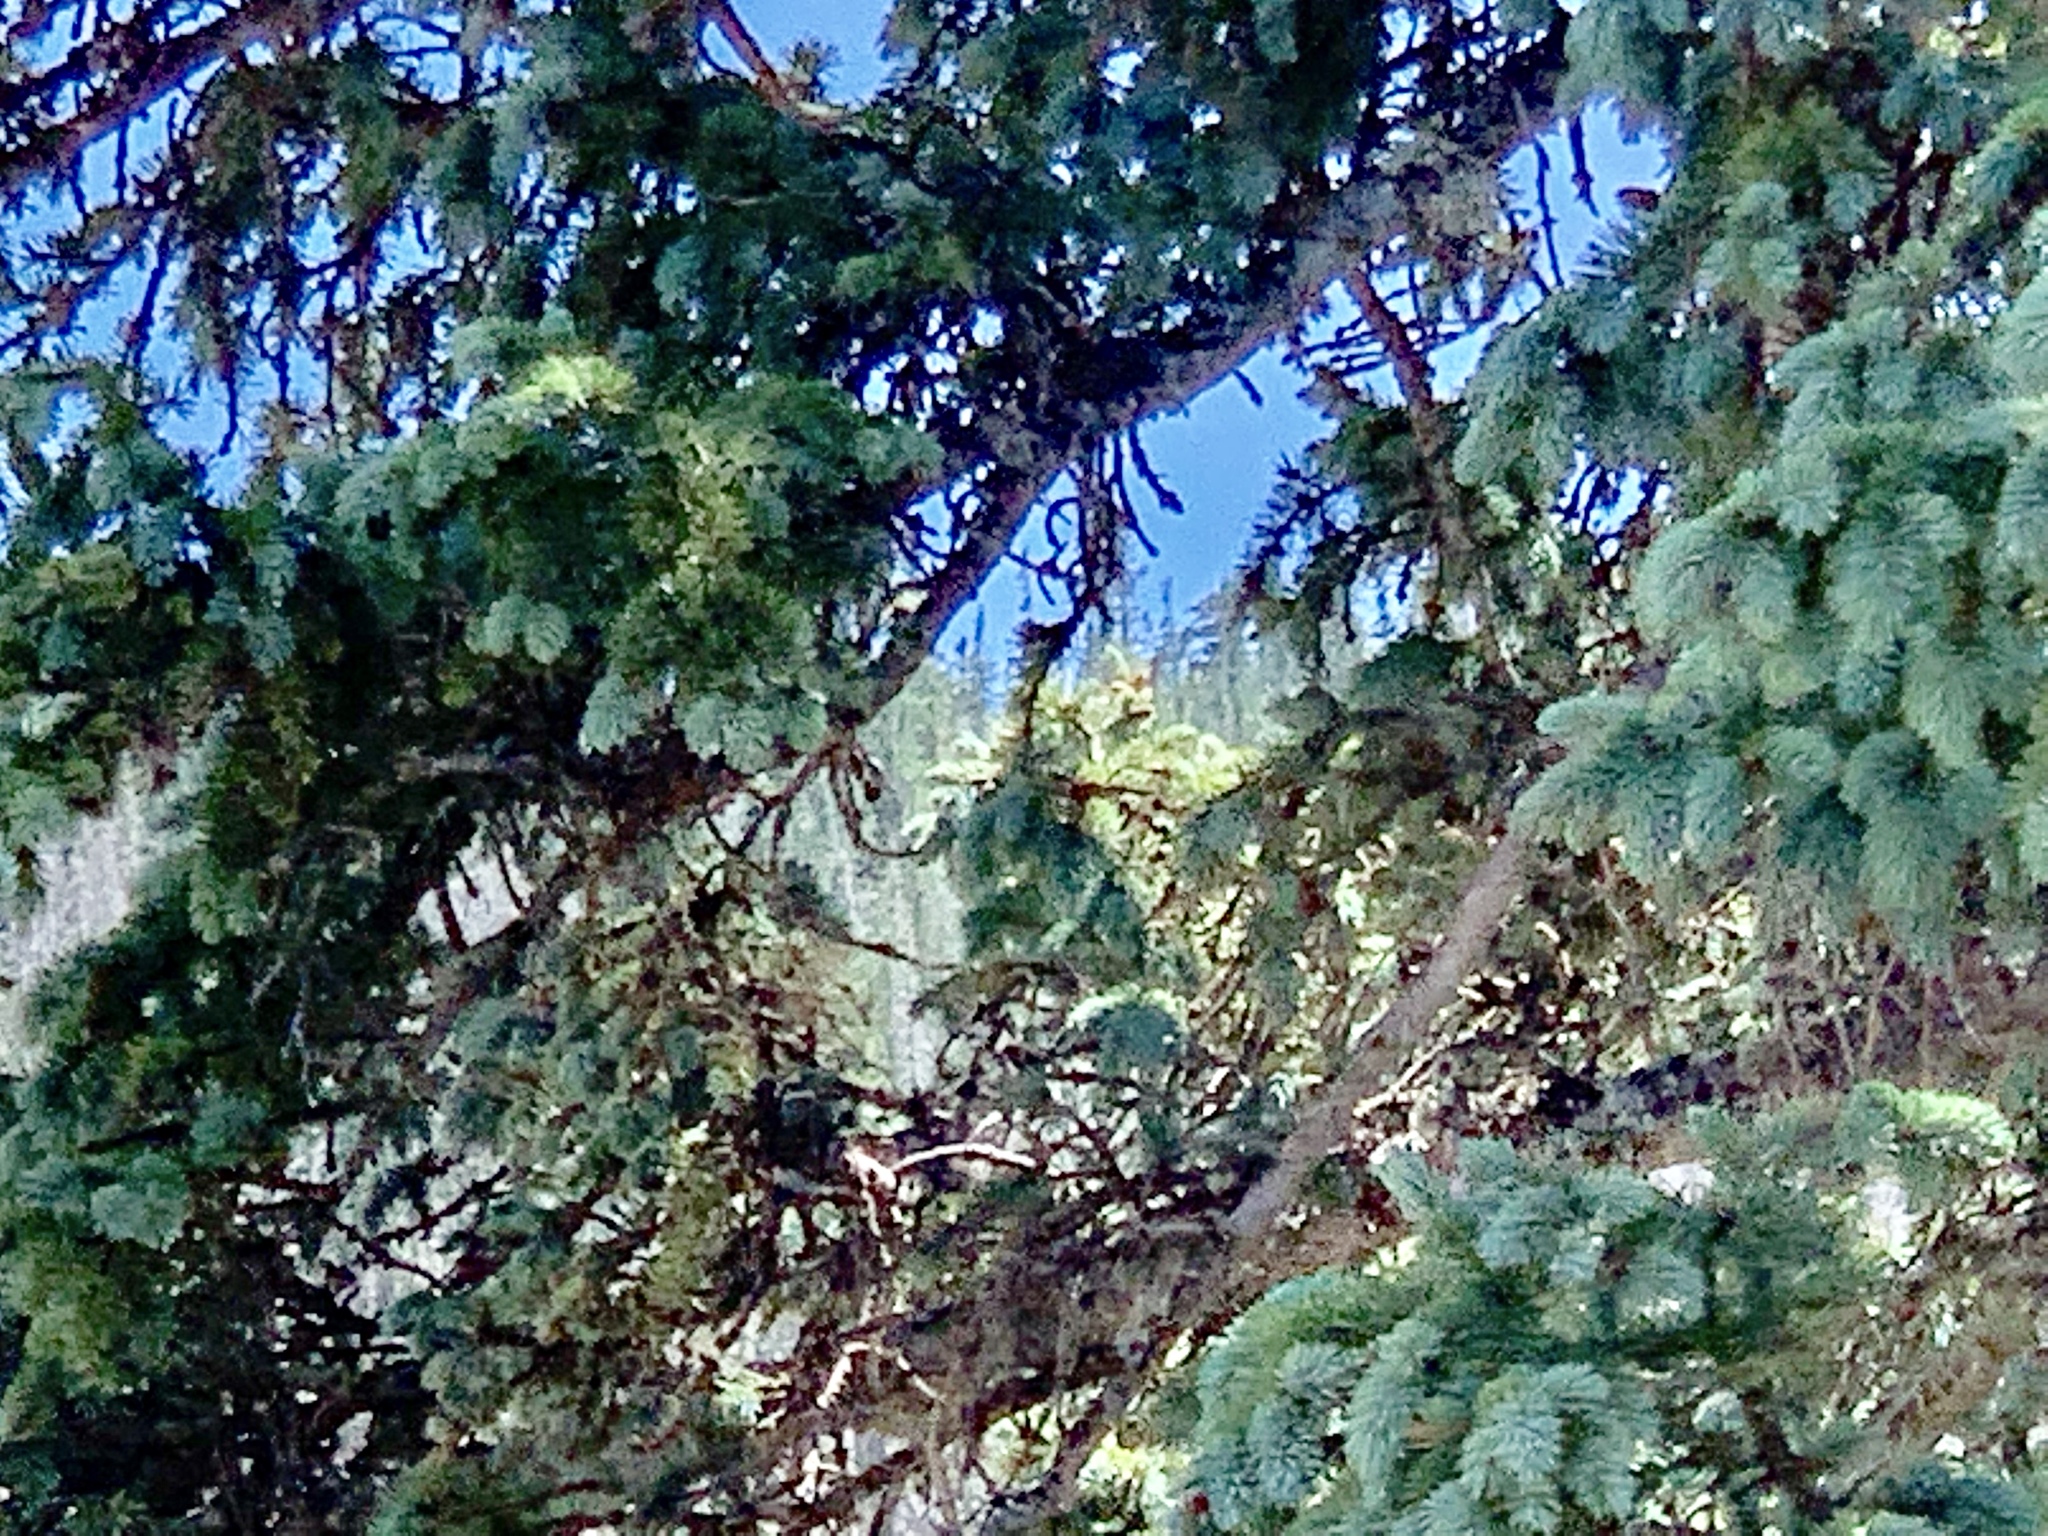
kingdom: Plantae
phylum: Tracheophyta
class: Pinopsida
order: Pinales
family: Pinaceae
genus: Picea
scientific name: Picea engelmannii
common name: Engelmann spruce
